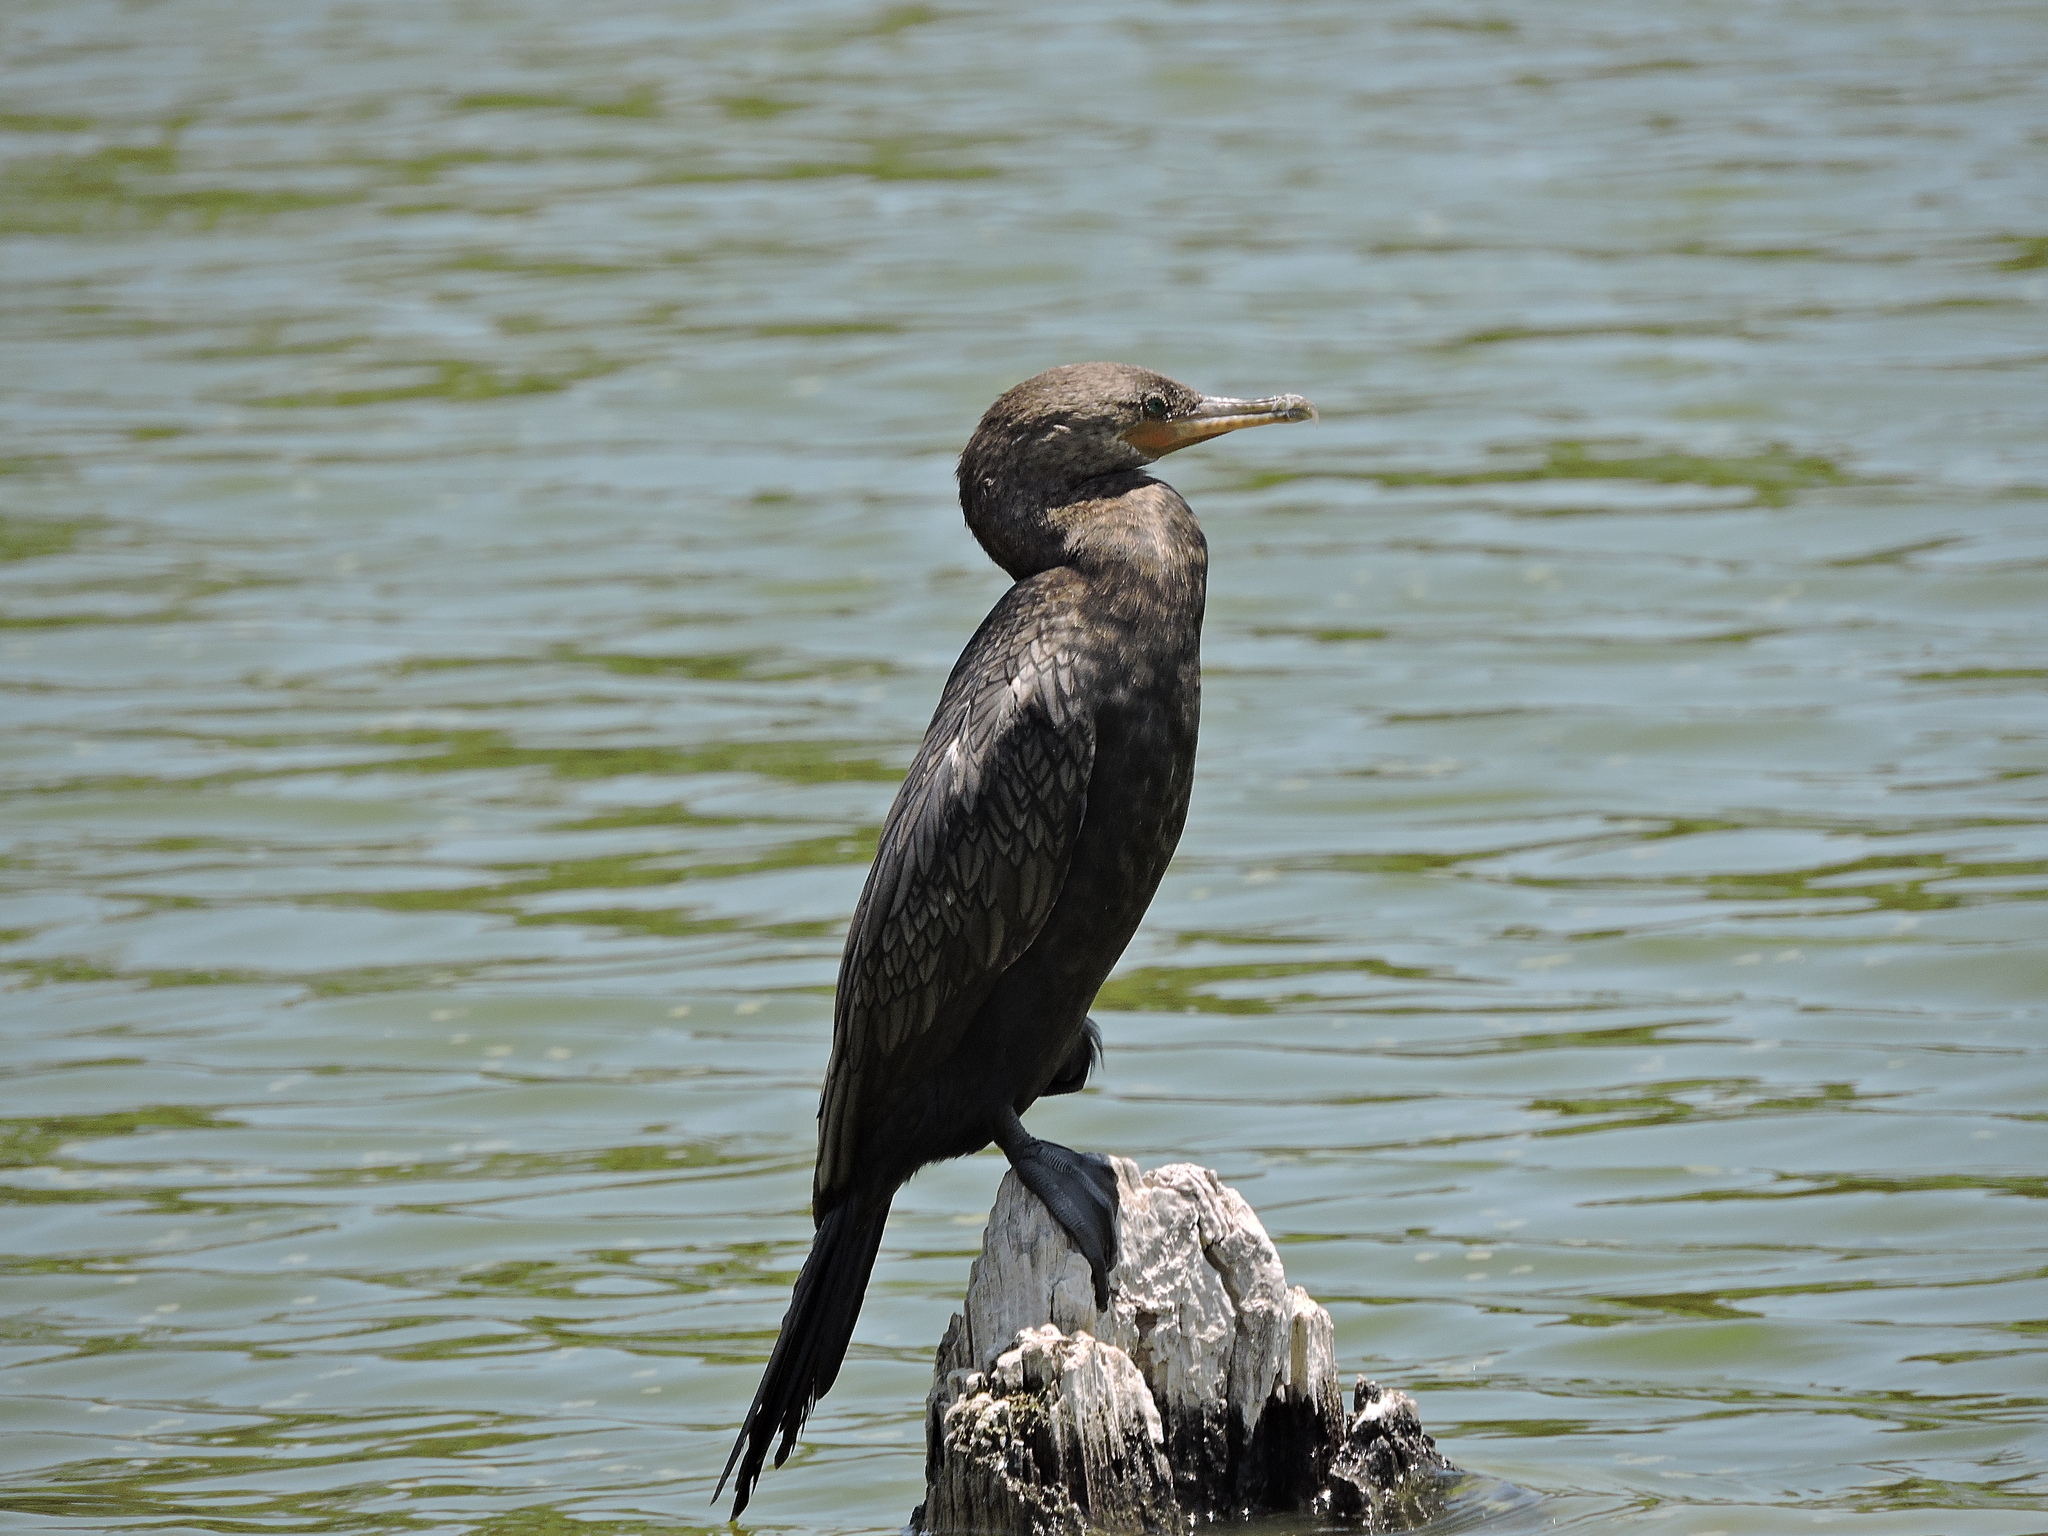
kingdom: Animalia
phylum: Chordata
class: Aves
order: Suliformes
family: Phalacrocoracidae
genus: Phalacrocorax
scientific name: Phalacrocorax brasilianus
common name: Neotropic cormorant
